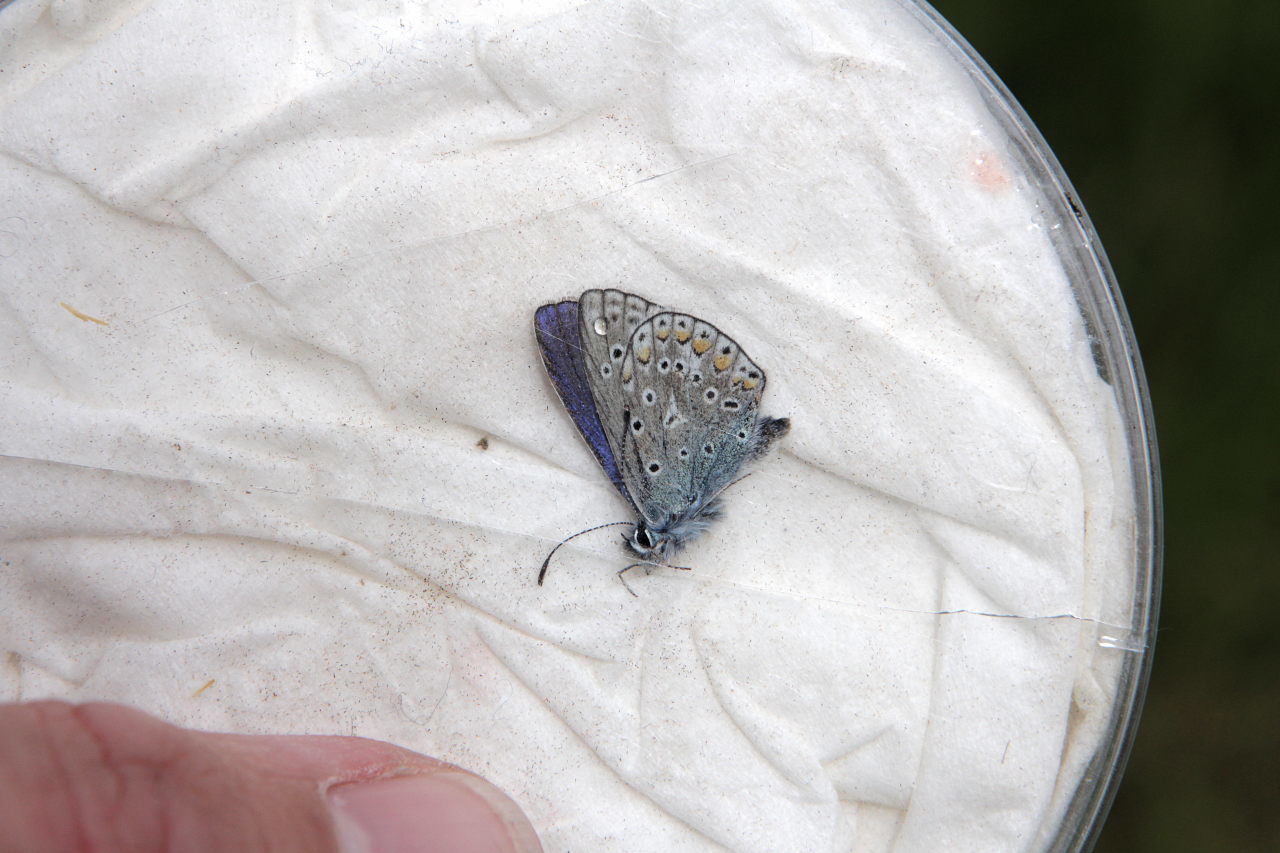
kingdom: Animalia
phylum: Arthropoda
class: Insecta
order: Lepidoptera
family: Lycaenidae
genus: Polyommatus
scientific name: Polyommatus icarus
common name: Common blue
